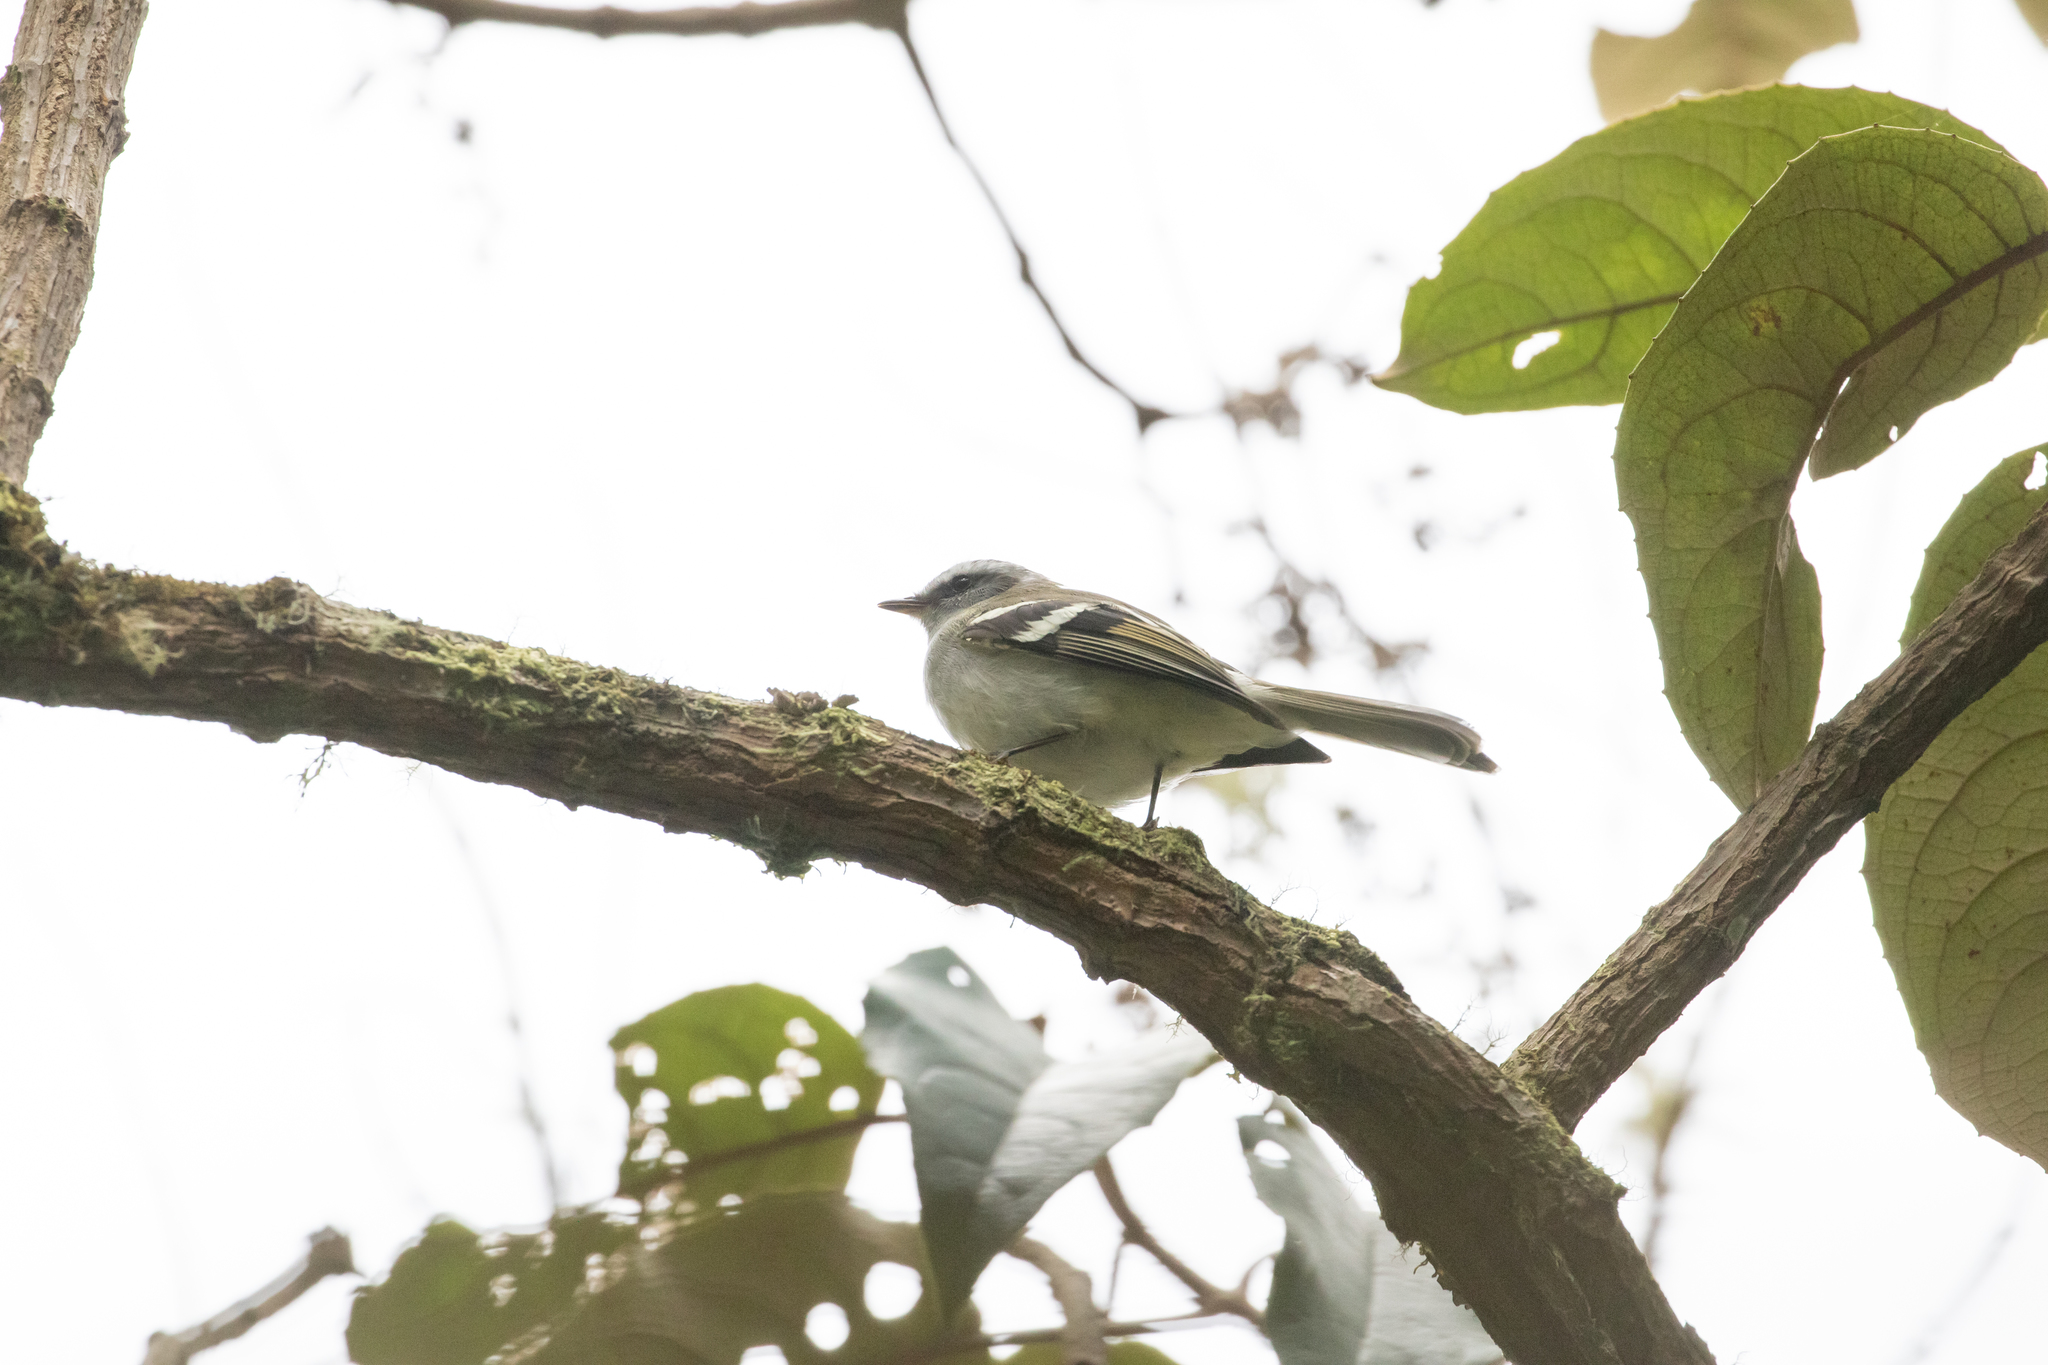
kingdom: Animalia
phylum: Chordata
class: Aves
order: Passeriformes
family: Tyrannidae
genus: Mecocerculus
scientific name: Mecocerculus stictopterus
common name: White-banded tyrannulet
